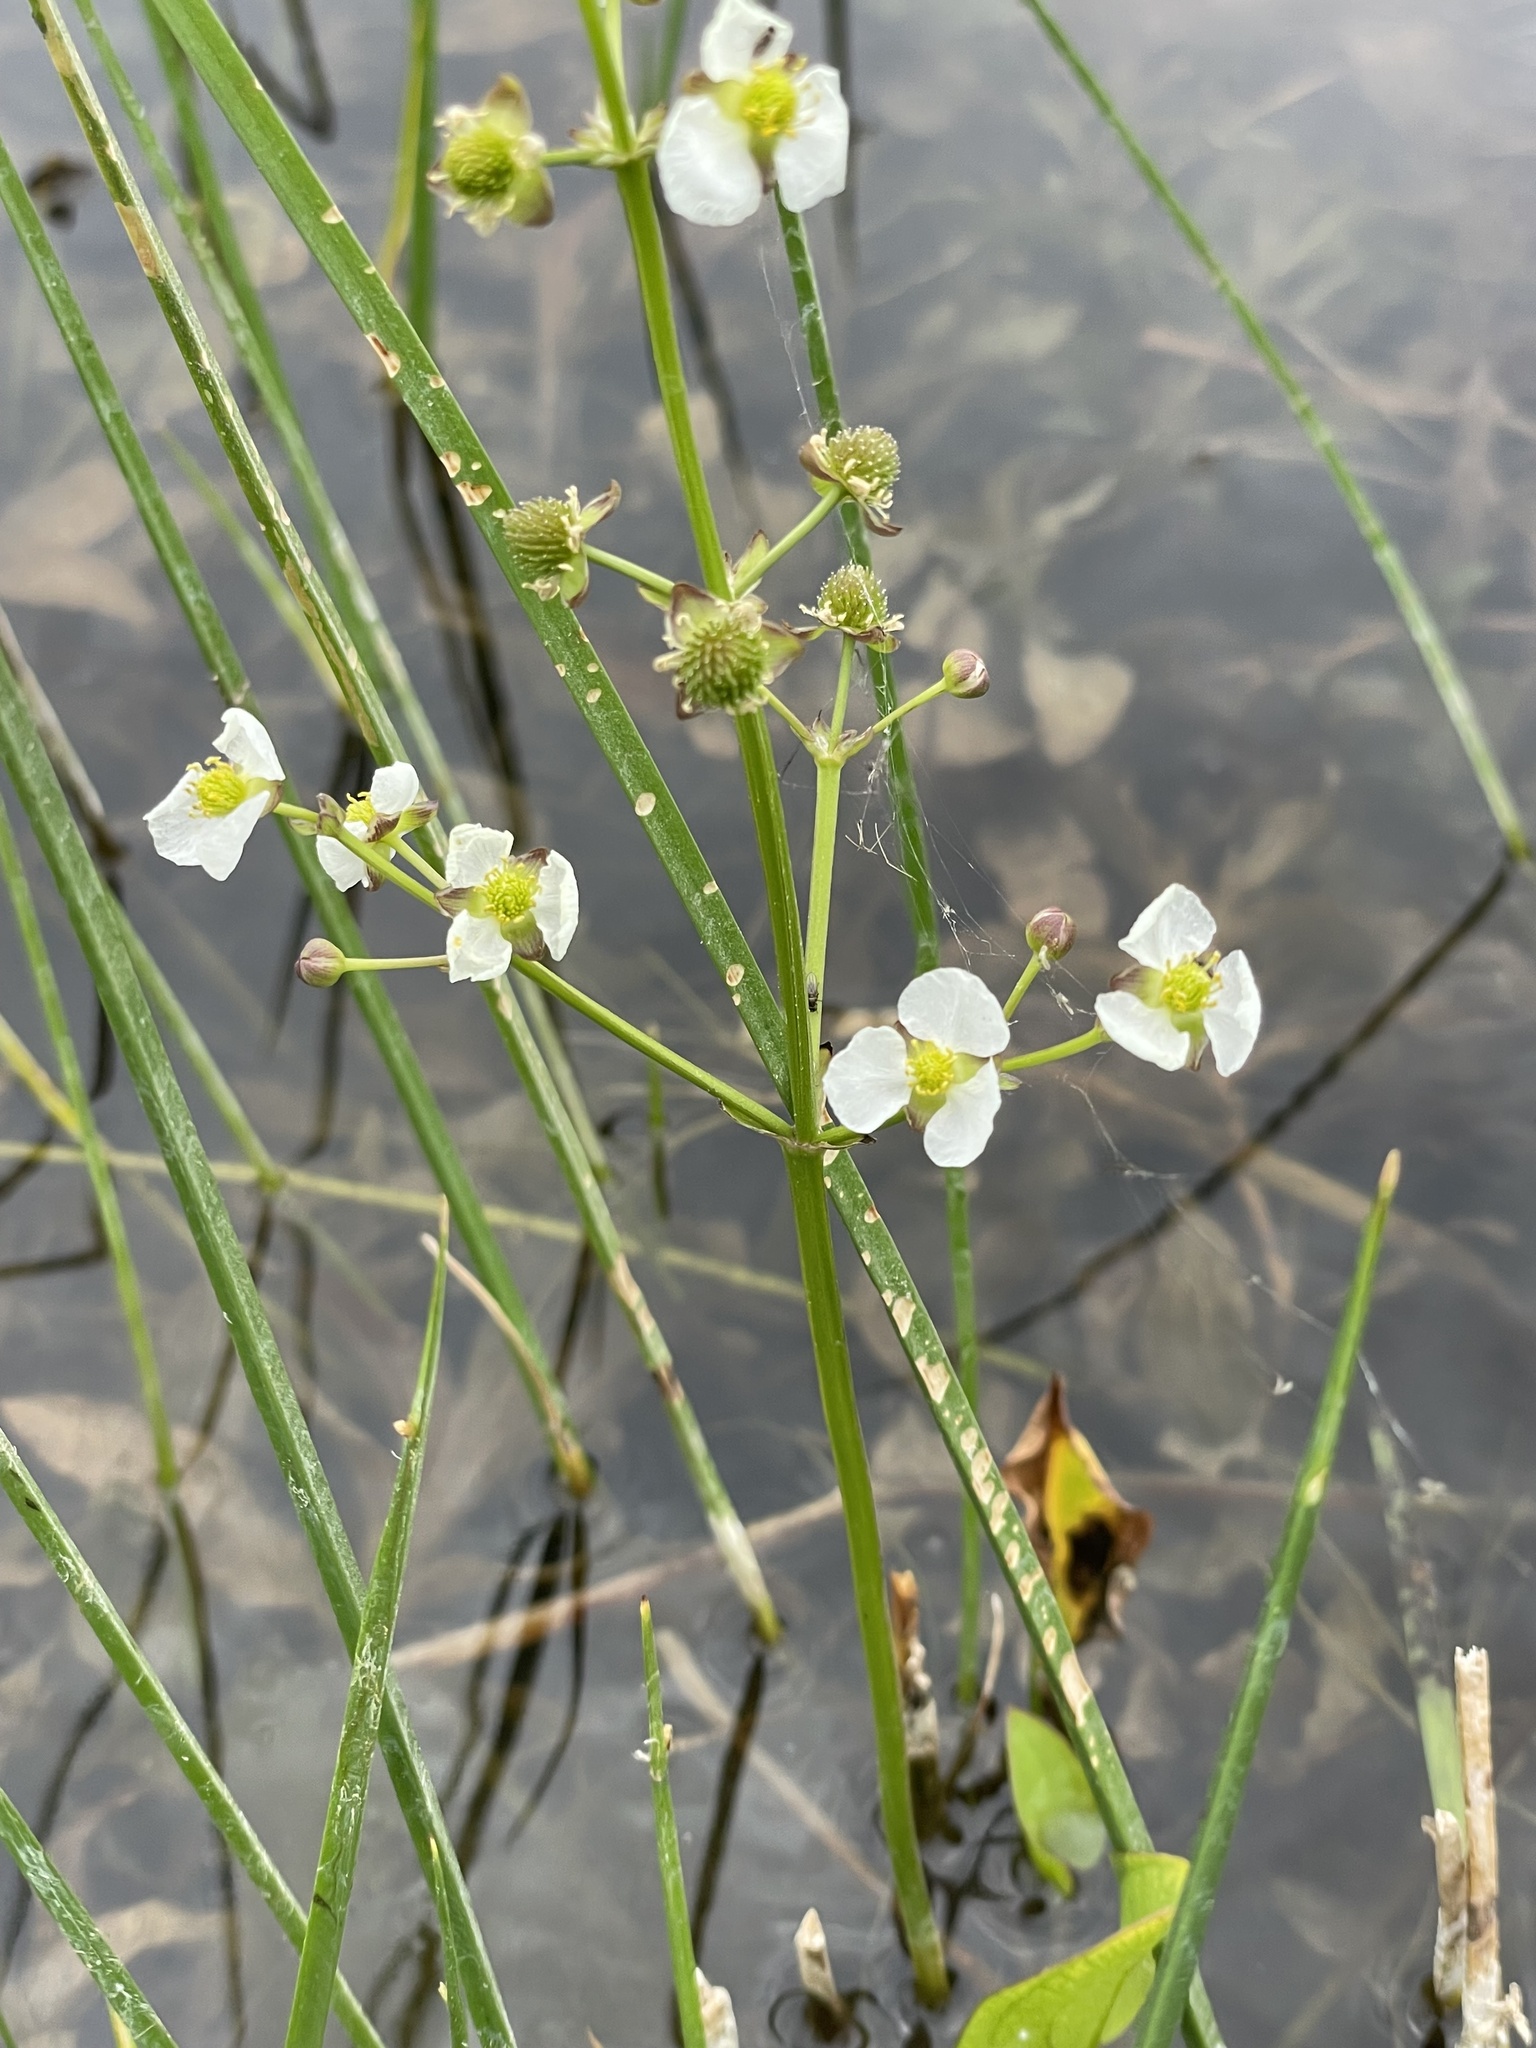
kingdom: Plantae
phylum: Tracheophyta
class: Liliopsida
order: Alismatales
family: Alismataceae
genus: Echinodorus
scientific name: Echinodorus berteroi
